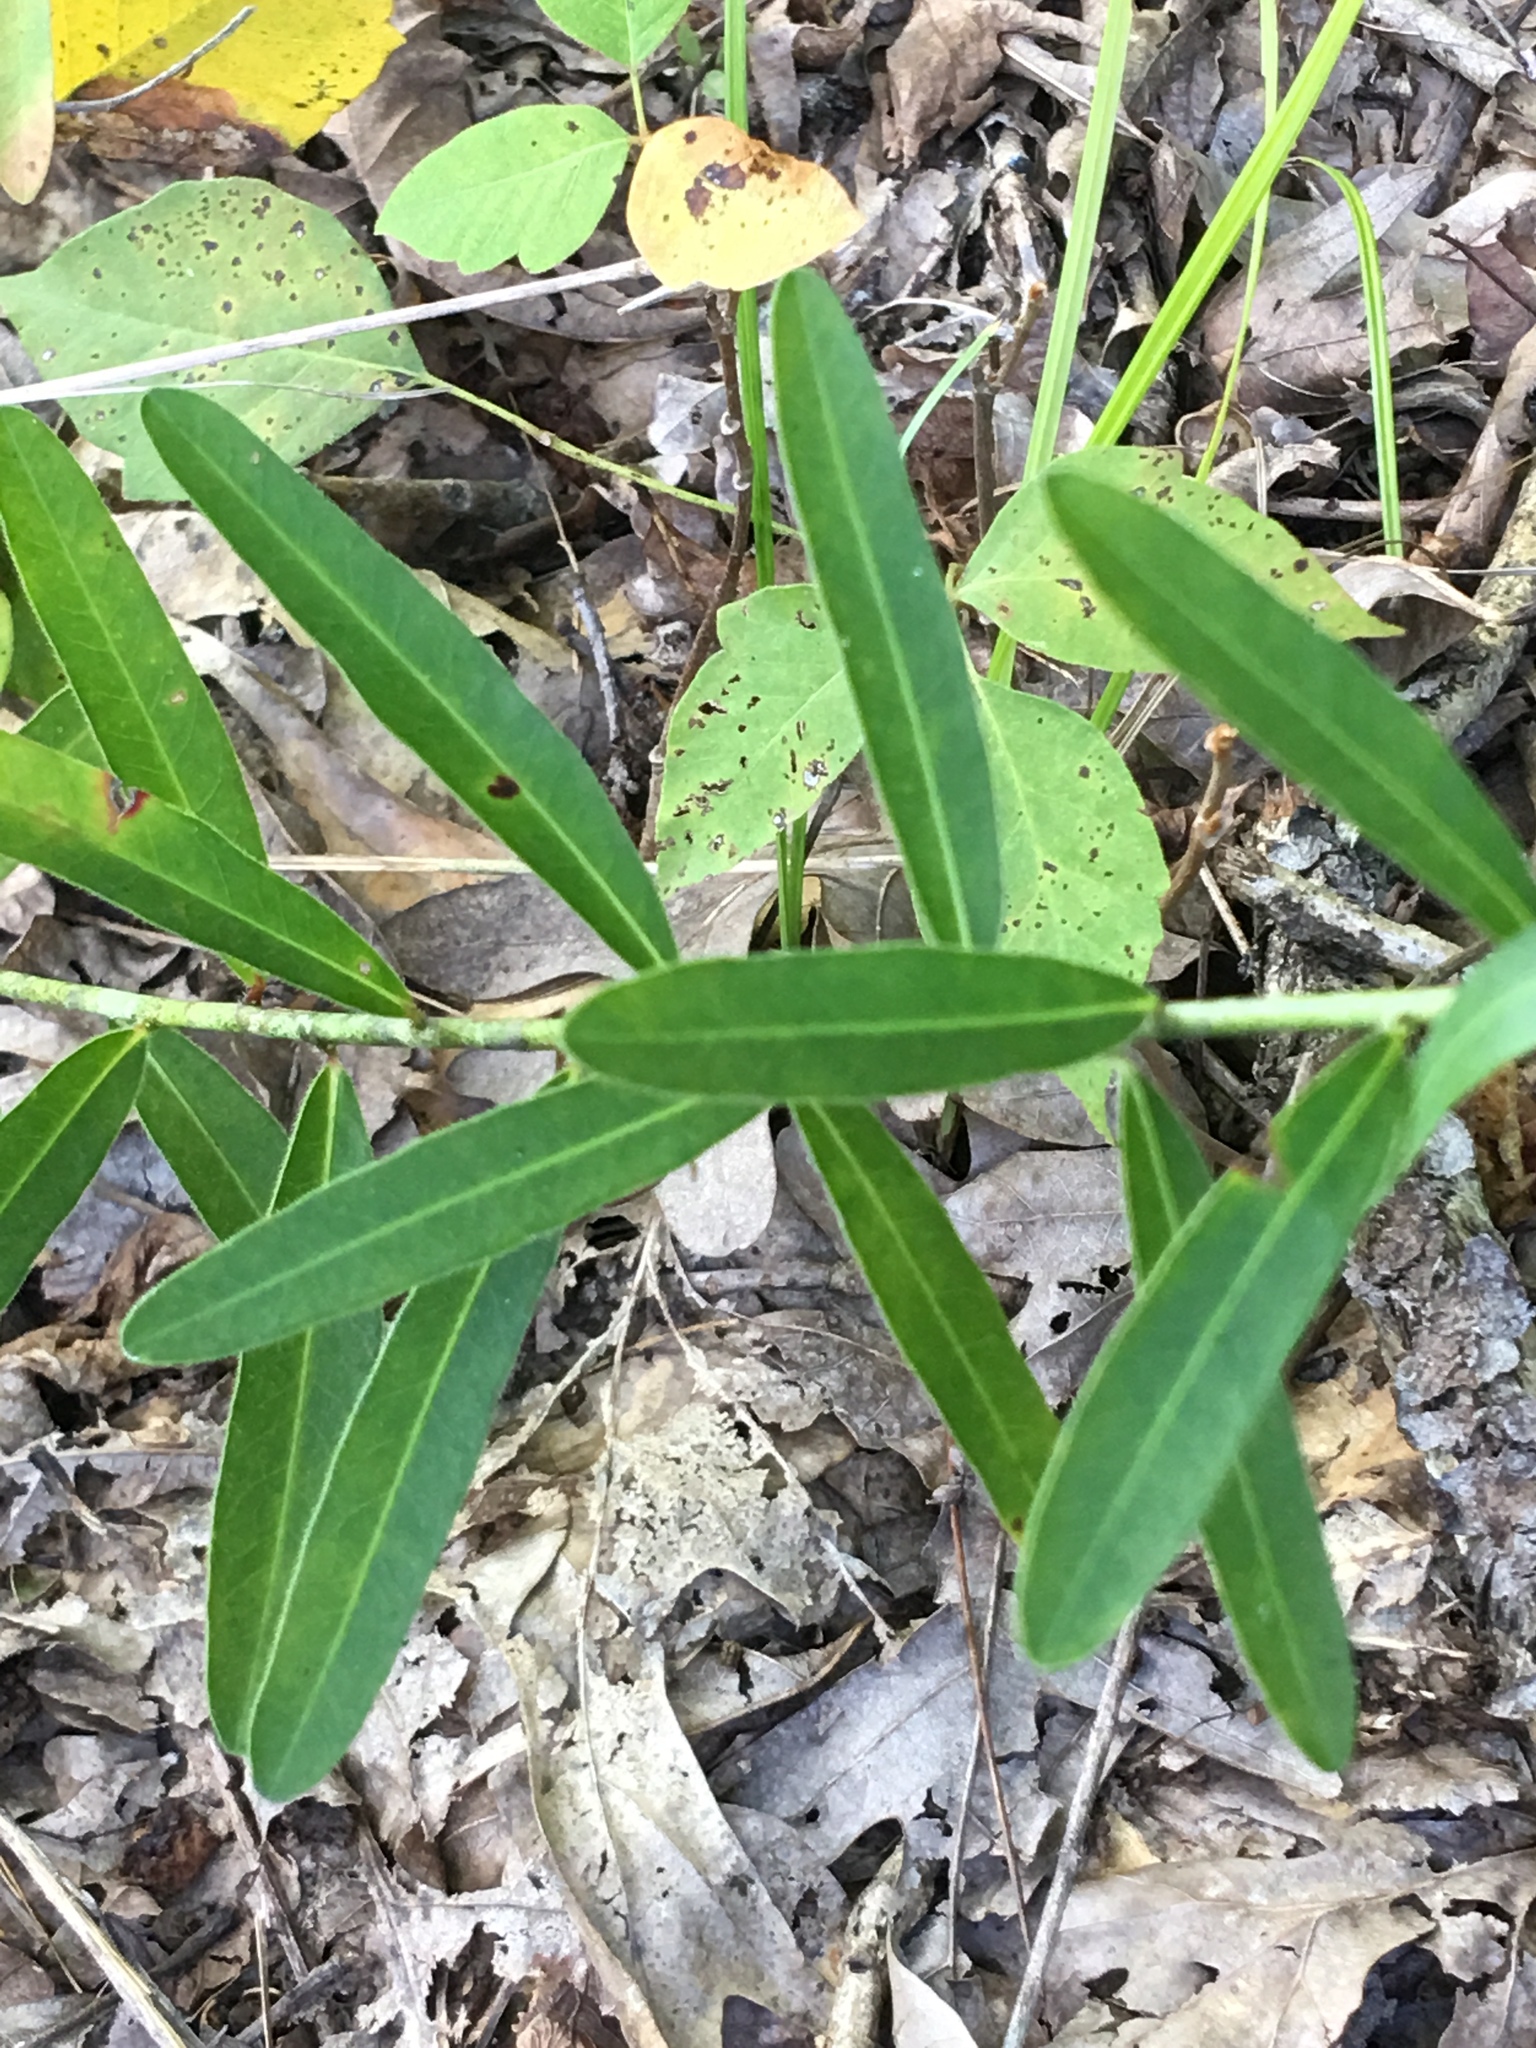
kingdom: Plantae
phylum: Tracheophyta
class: Magnoliopsida
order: Malpighiales
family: Euphorbiaceae
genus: Euphorbia
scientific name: Euphorbia corollata
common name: Flowering spurge
